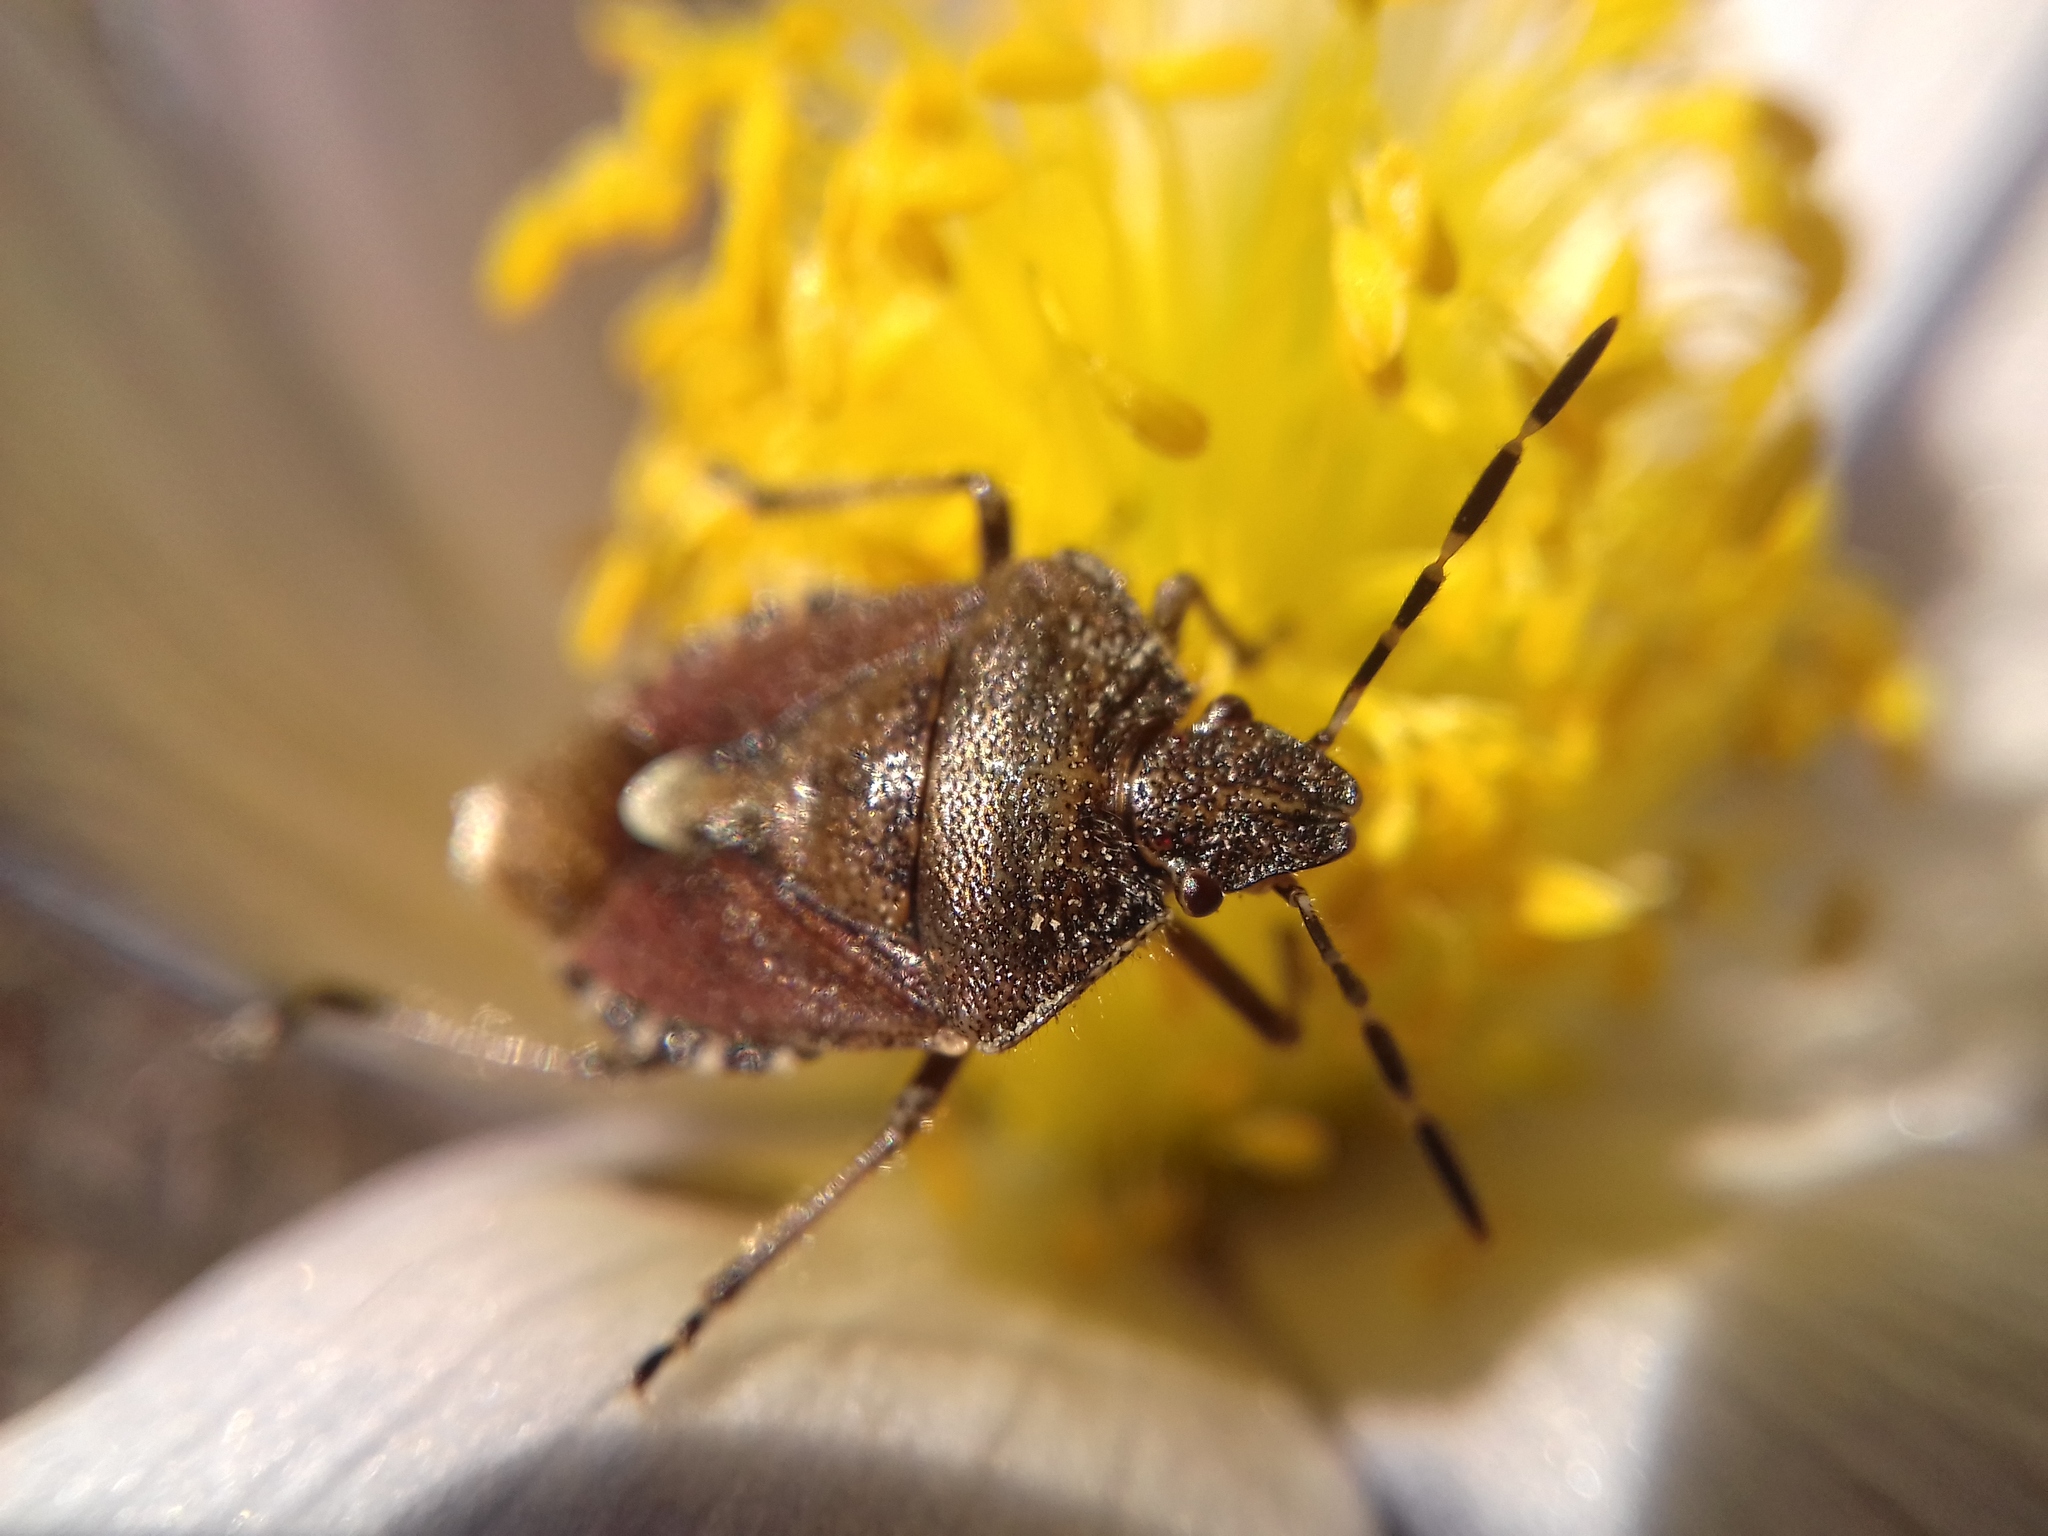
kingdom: Animalia
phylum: Arthropoda
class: Insecta
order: Hemiptera
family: Pentatomidae
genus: Dolycoris
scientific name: Dolycoris baccarum
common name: Sloe bug
